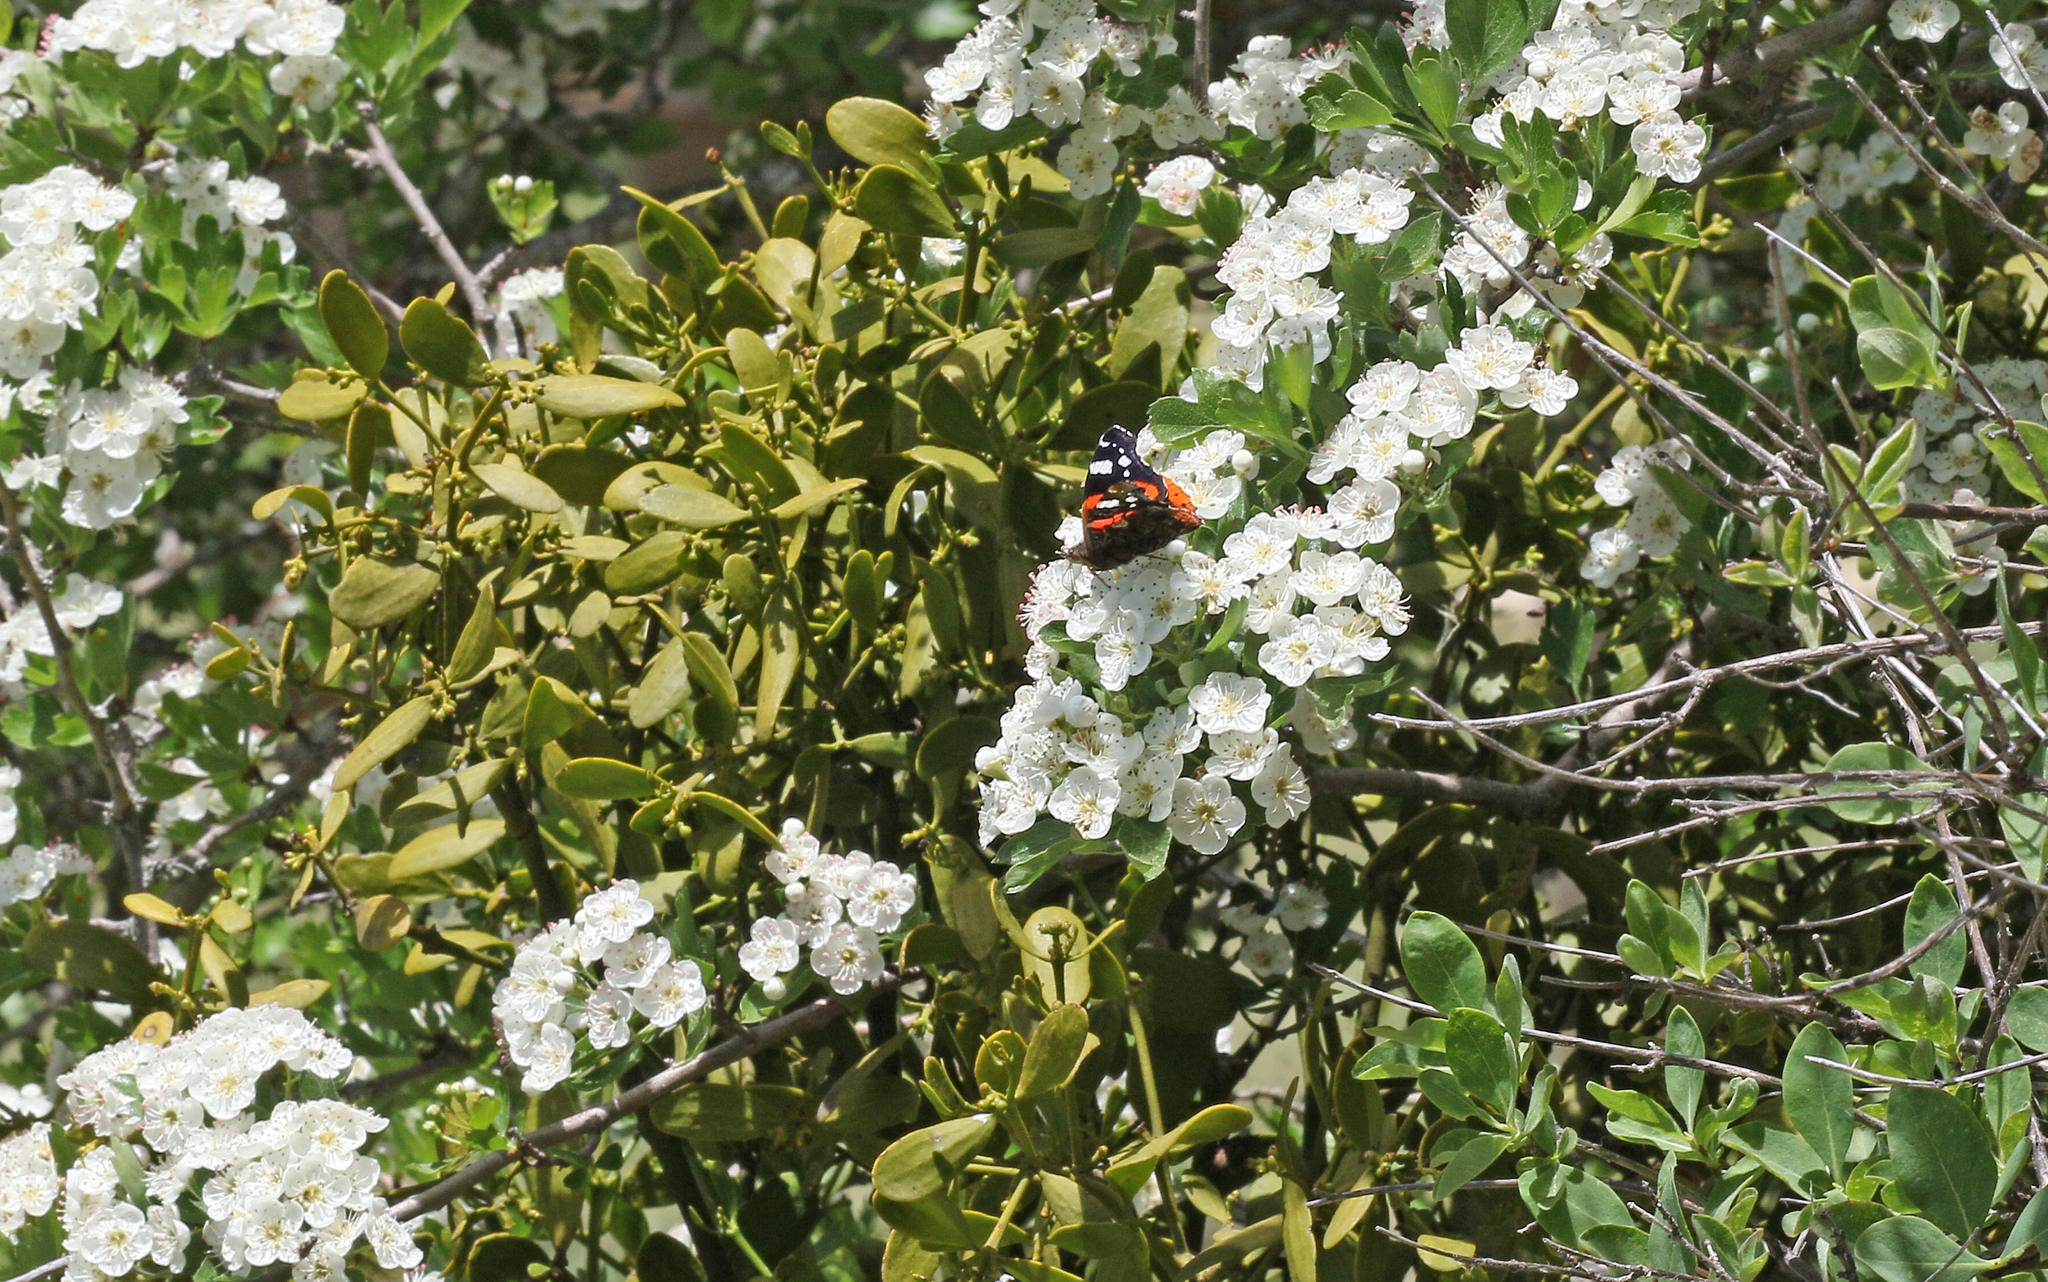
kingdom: Animalia
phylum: Arthropoda
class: Insecta
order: Lepidoptera
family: Nymphalidae
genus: Vanessa
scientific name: Vanessa atalanta
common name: Red admiral
